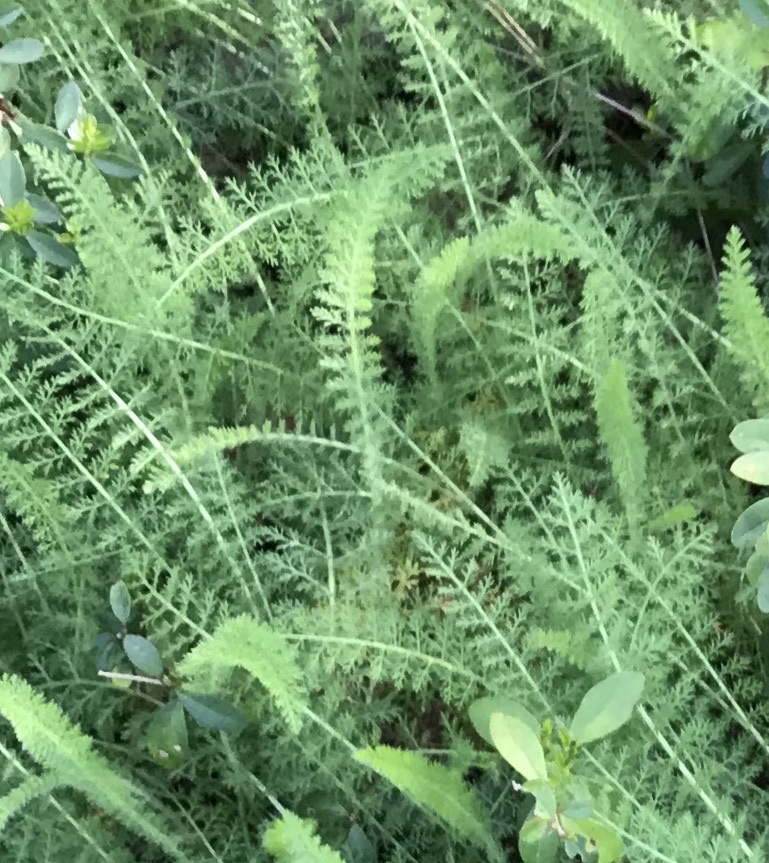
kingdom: Plantae
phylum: Tracheophyta
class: Magnoliopsida
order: Asterales
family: Asteraceae
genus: Achillea
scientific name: Achillea millefolium
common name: Yarrow
